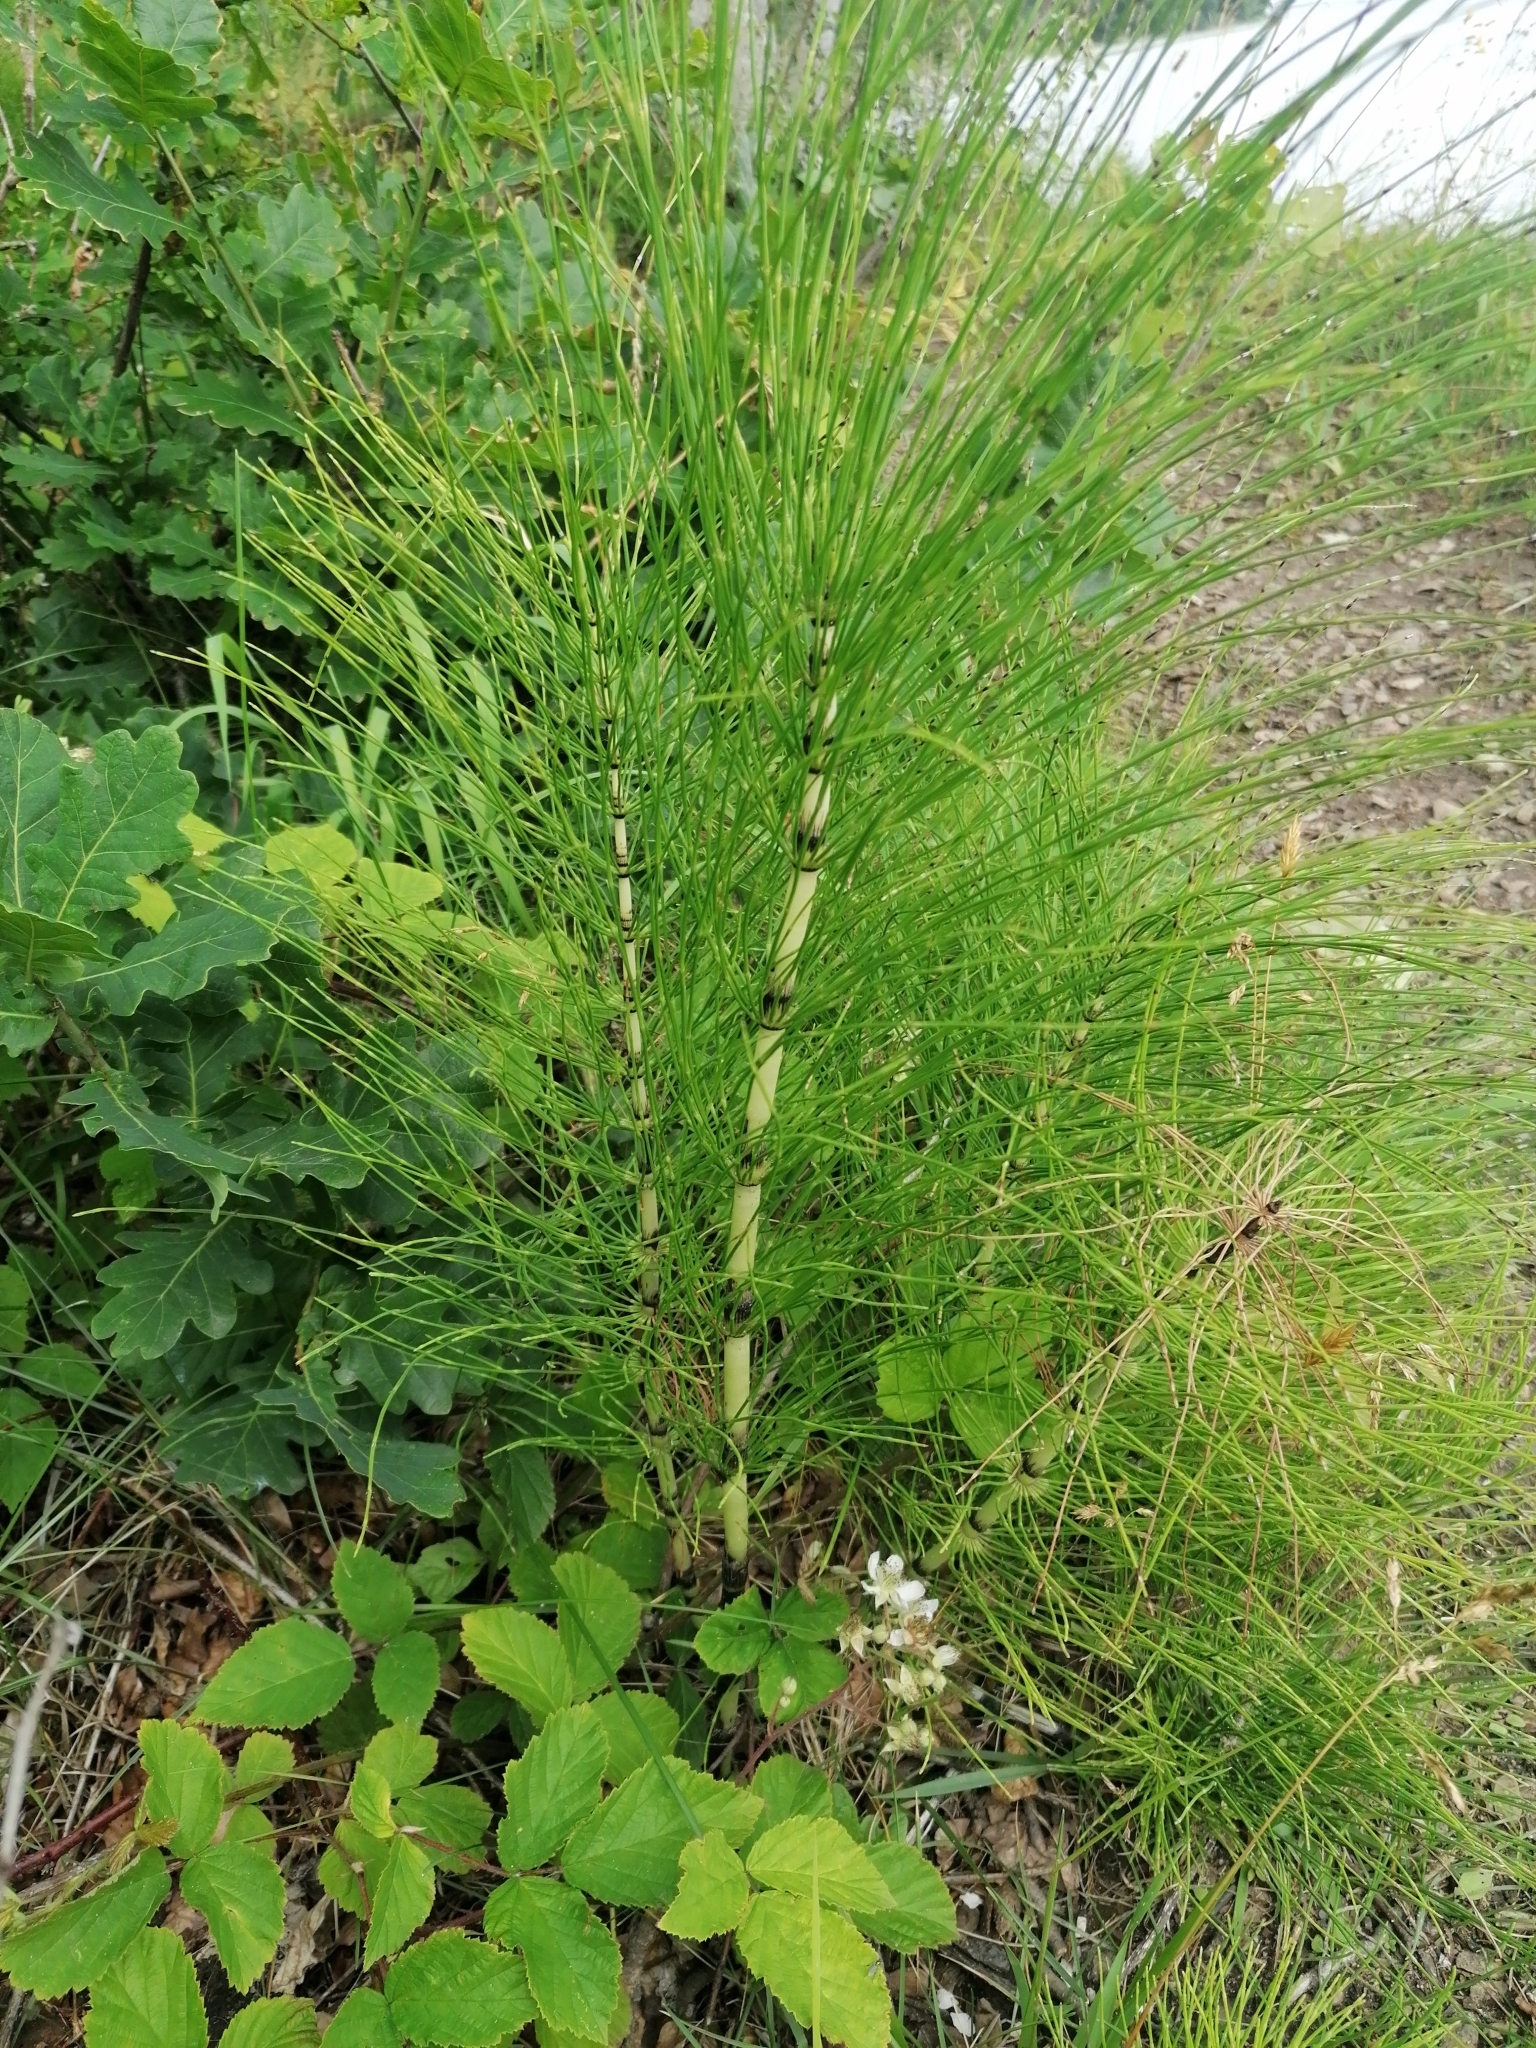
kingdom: Plantae
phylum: Tracheophyta
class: Polypodiopsida
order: Equisetales
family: Equisetaceae
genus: Equisetum
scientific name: Equisetum telmateia
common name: Great horsetail
